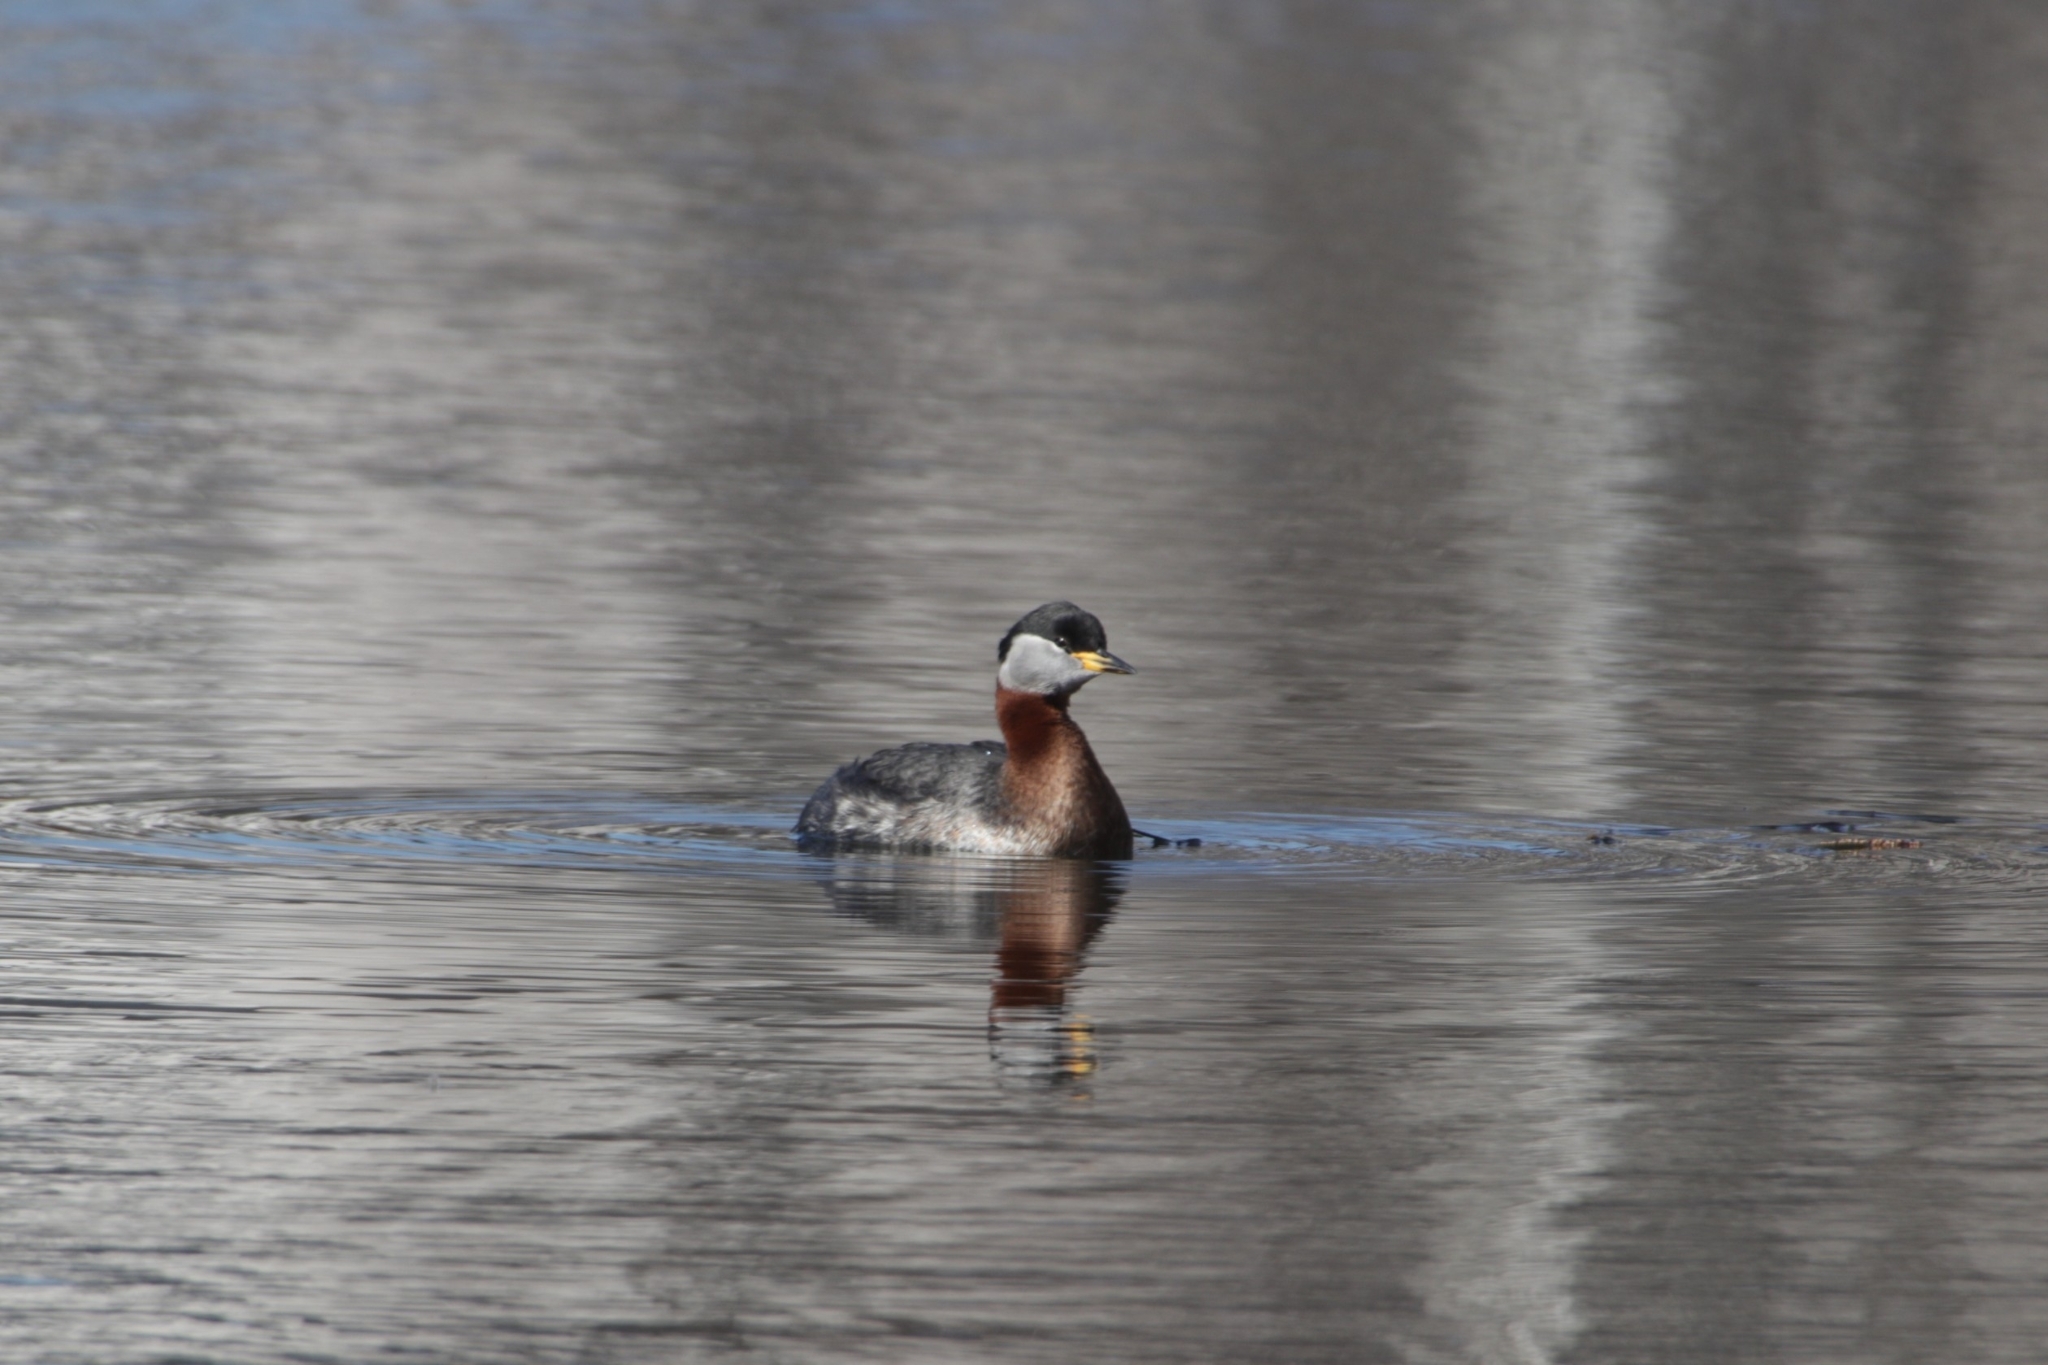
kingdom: Animalia
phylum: Chordata
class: Aves
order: Podicipediformes
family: Podicipedidae
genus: Podiceps
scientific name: Podiceps grisegena
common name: Red-necked grebe
